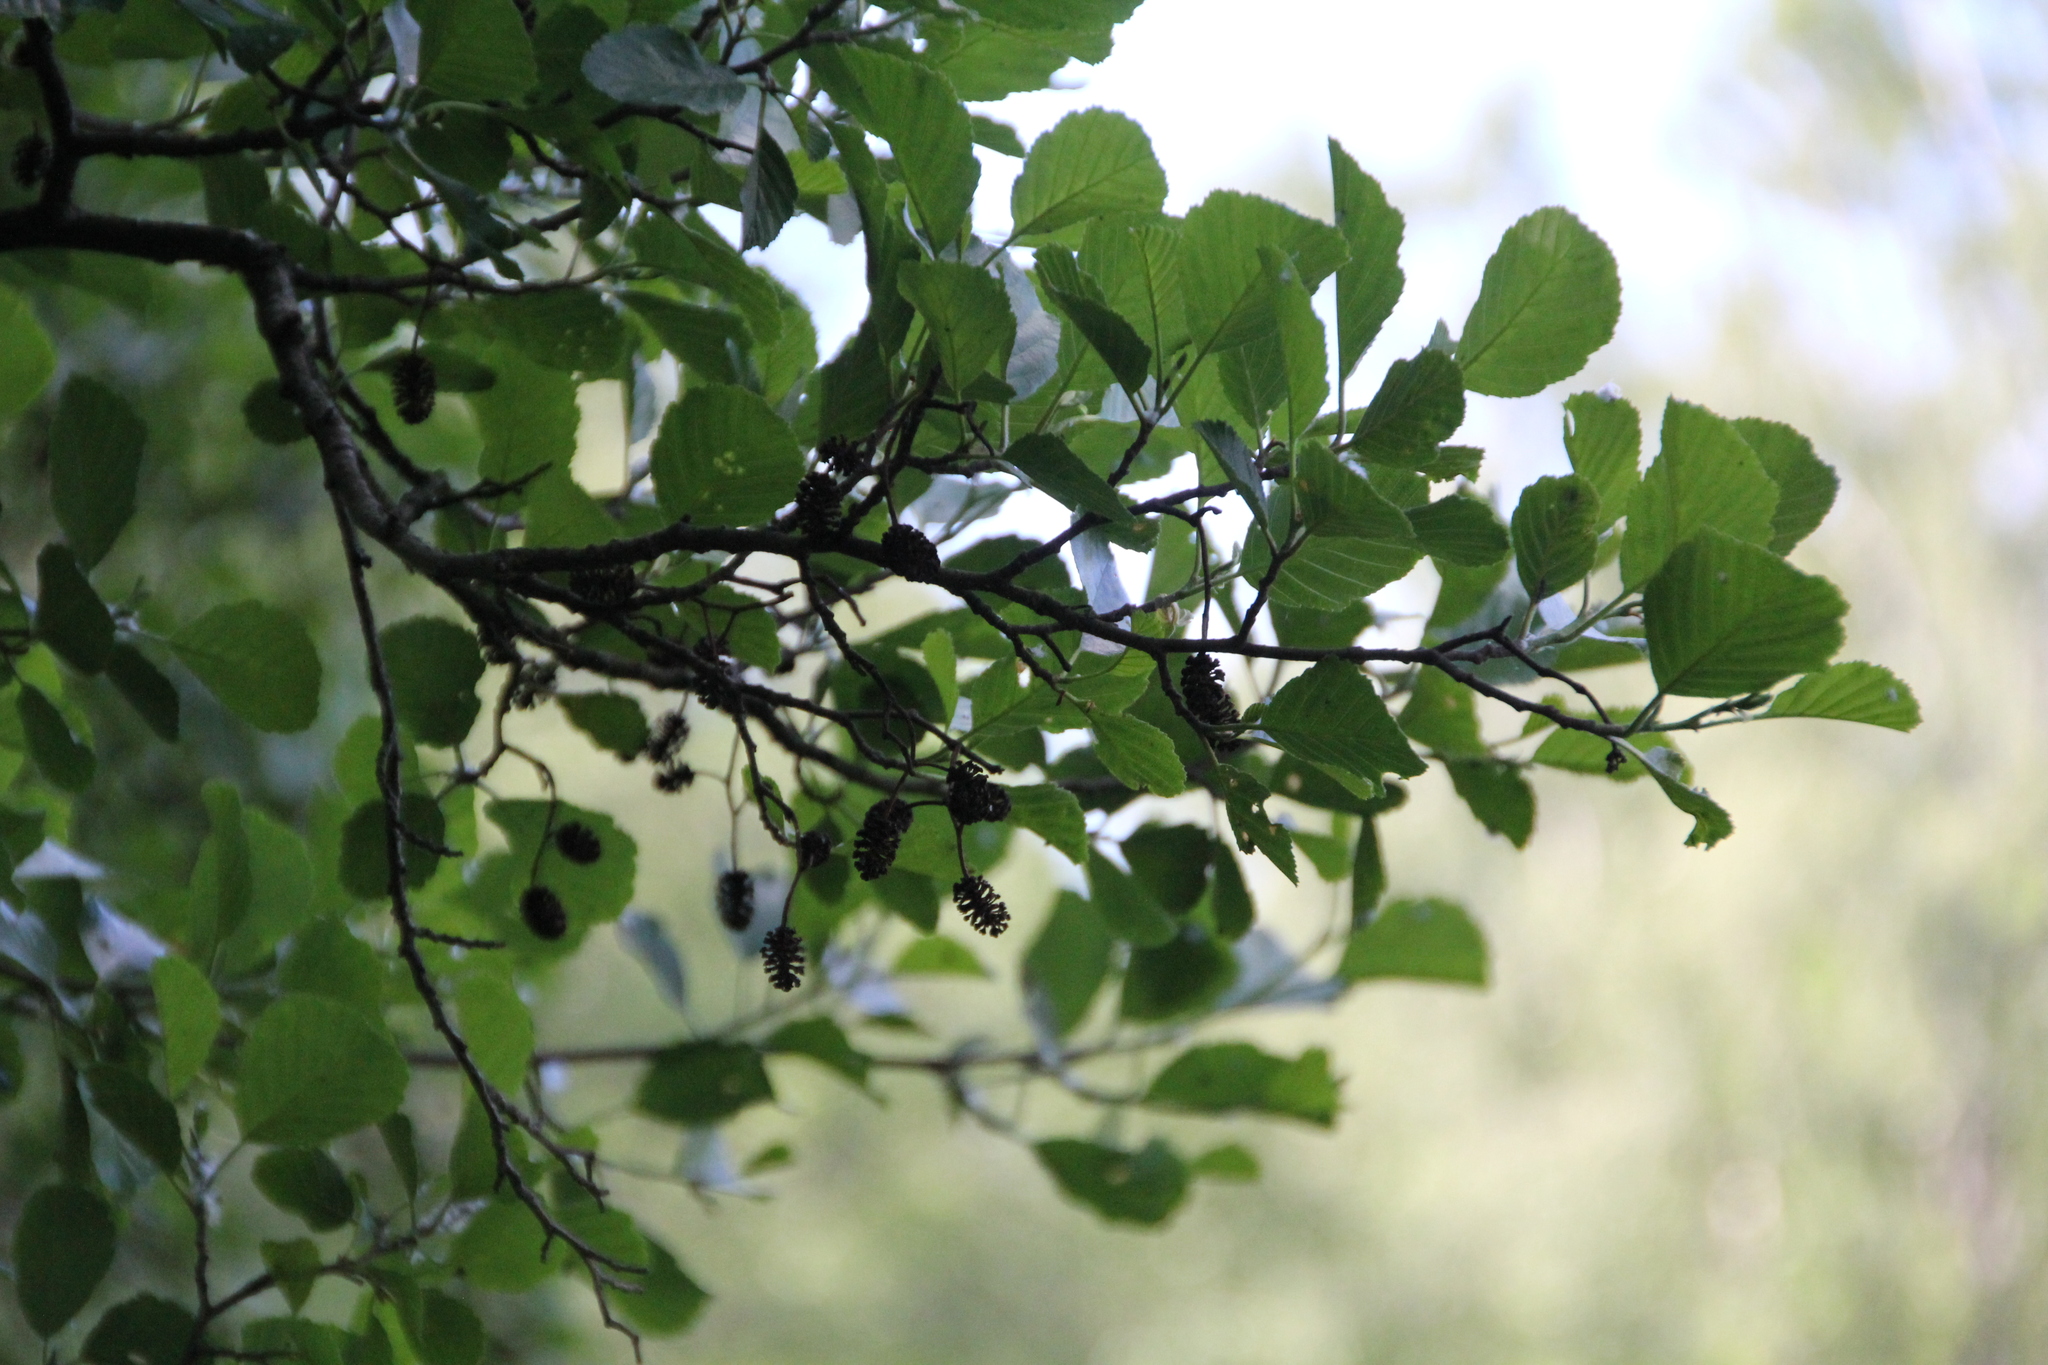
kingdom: Plantae
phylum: Tracheophyta
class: Magnoliopsida
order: Fagales
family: Betulaceae
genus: Alnus
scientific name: Alnus glutinosa
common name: Black alder
